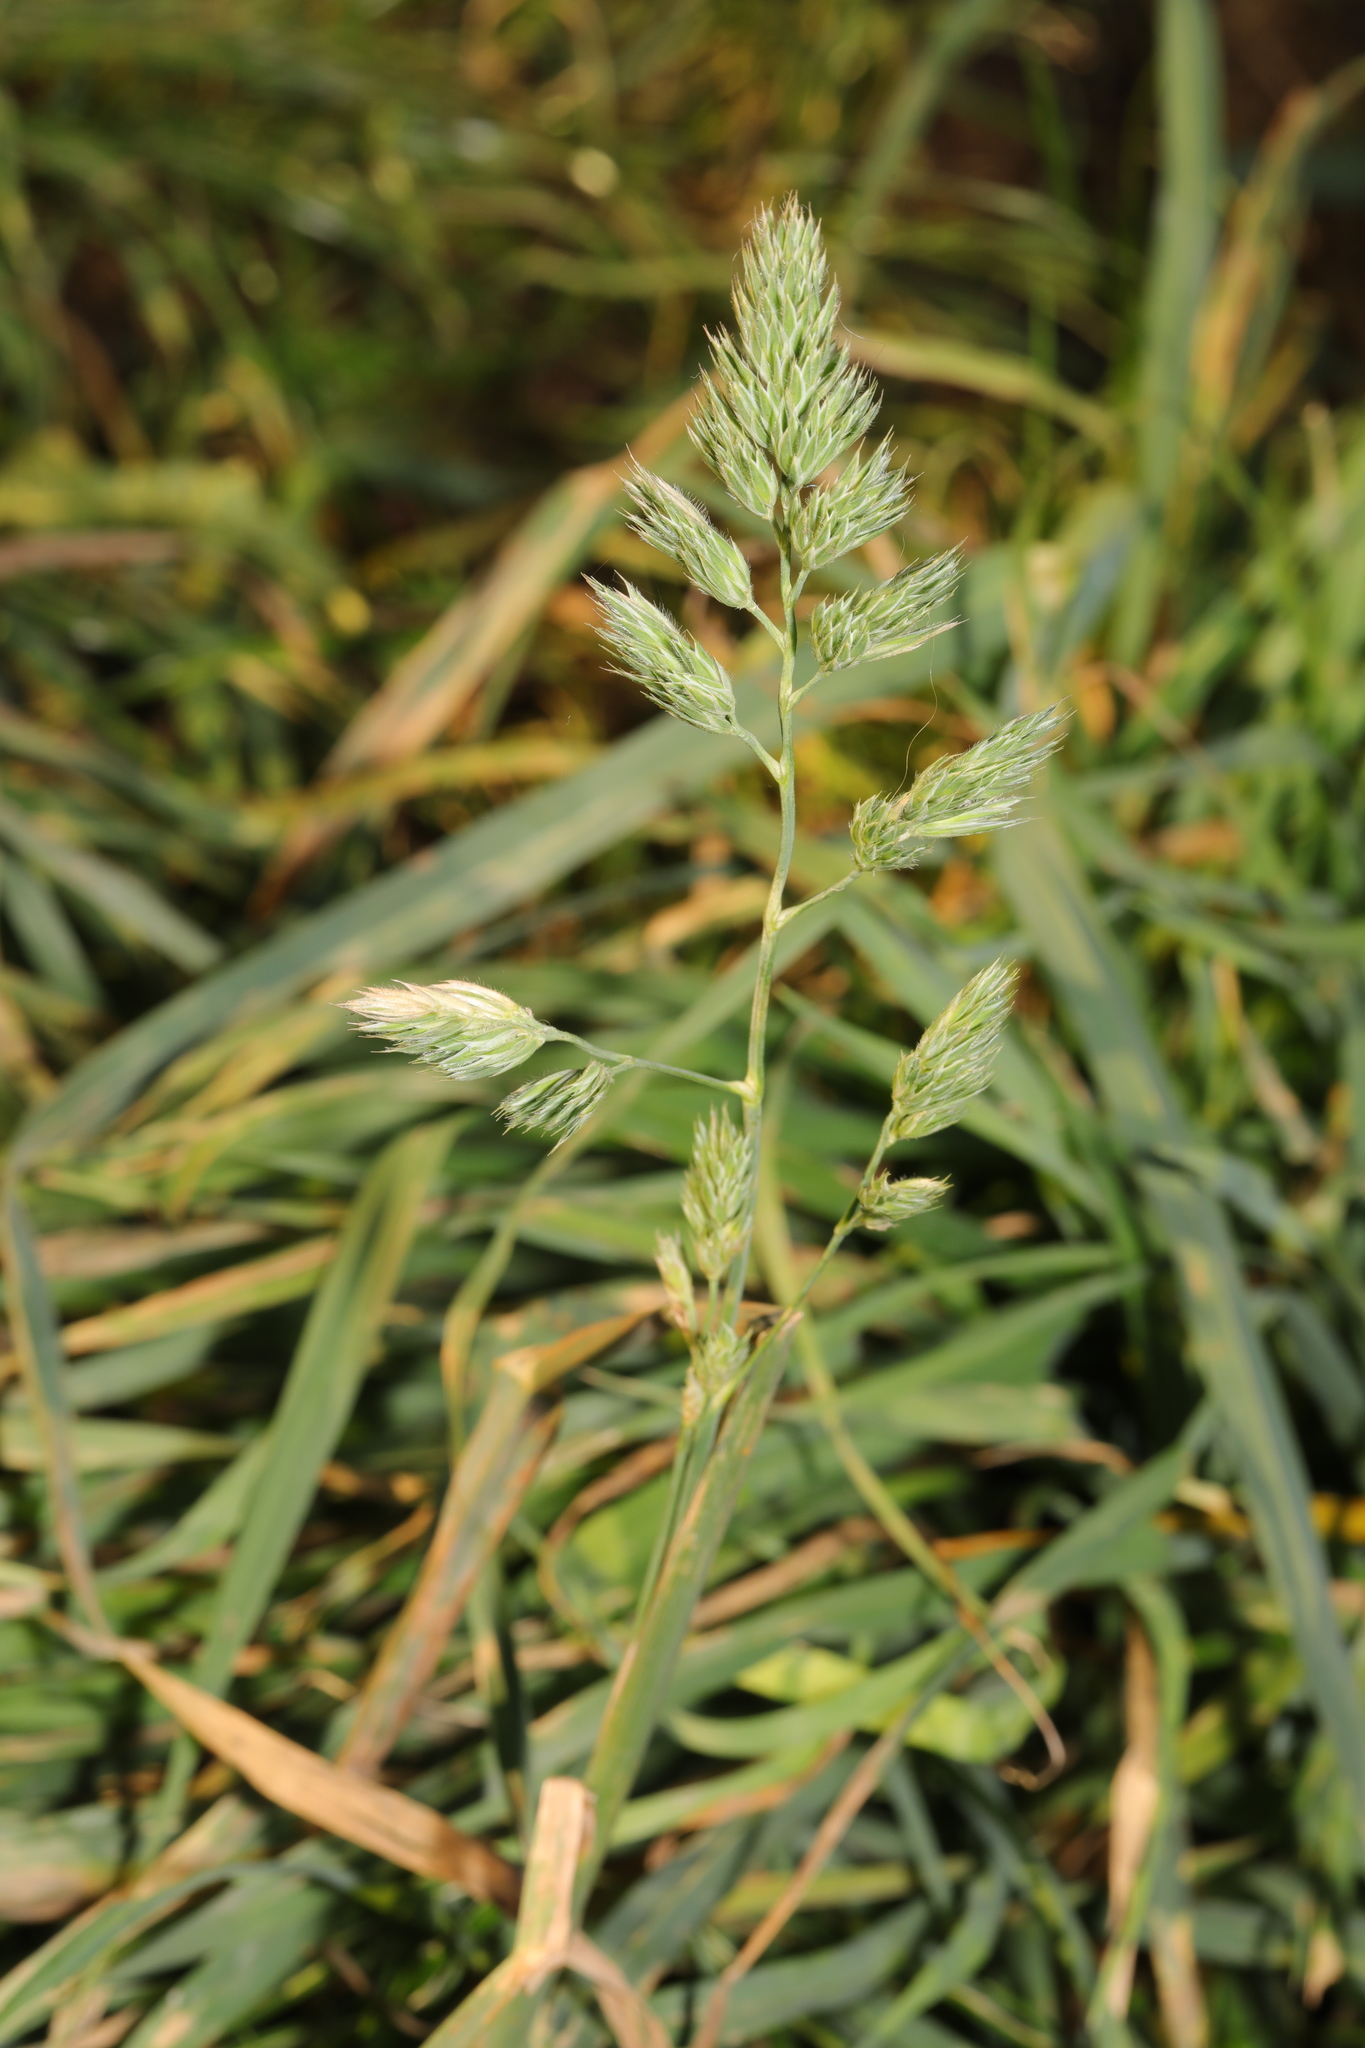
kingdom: Plantae
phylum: Tracheophyta
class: Liliopsida
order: Poales
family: Poaceae
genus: Dactylis
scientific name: Dactylis glomerata
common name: Orchardgrass
